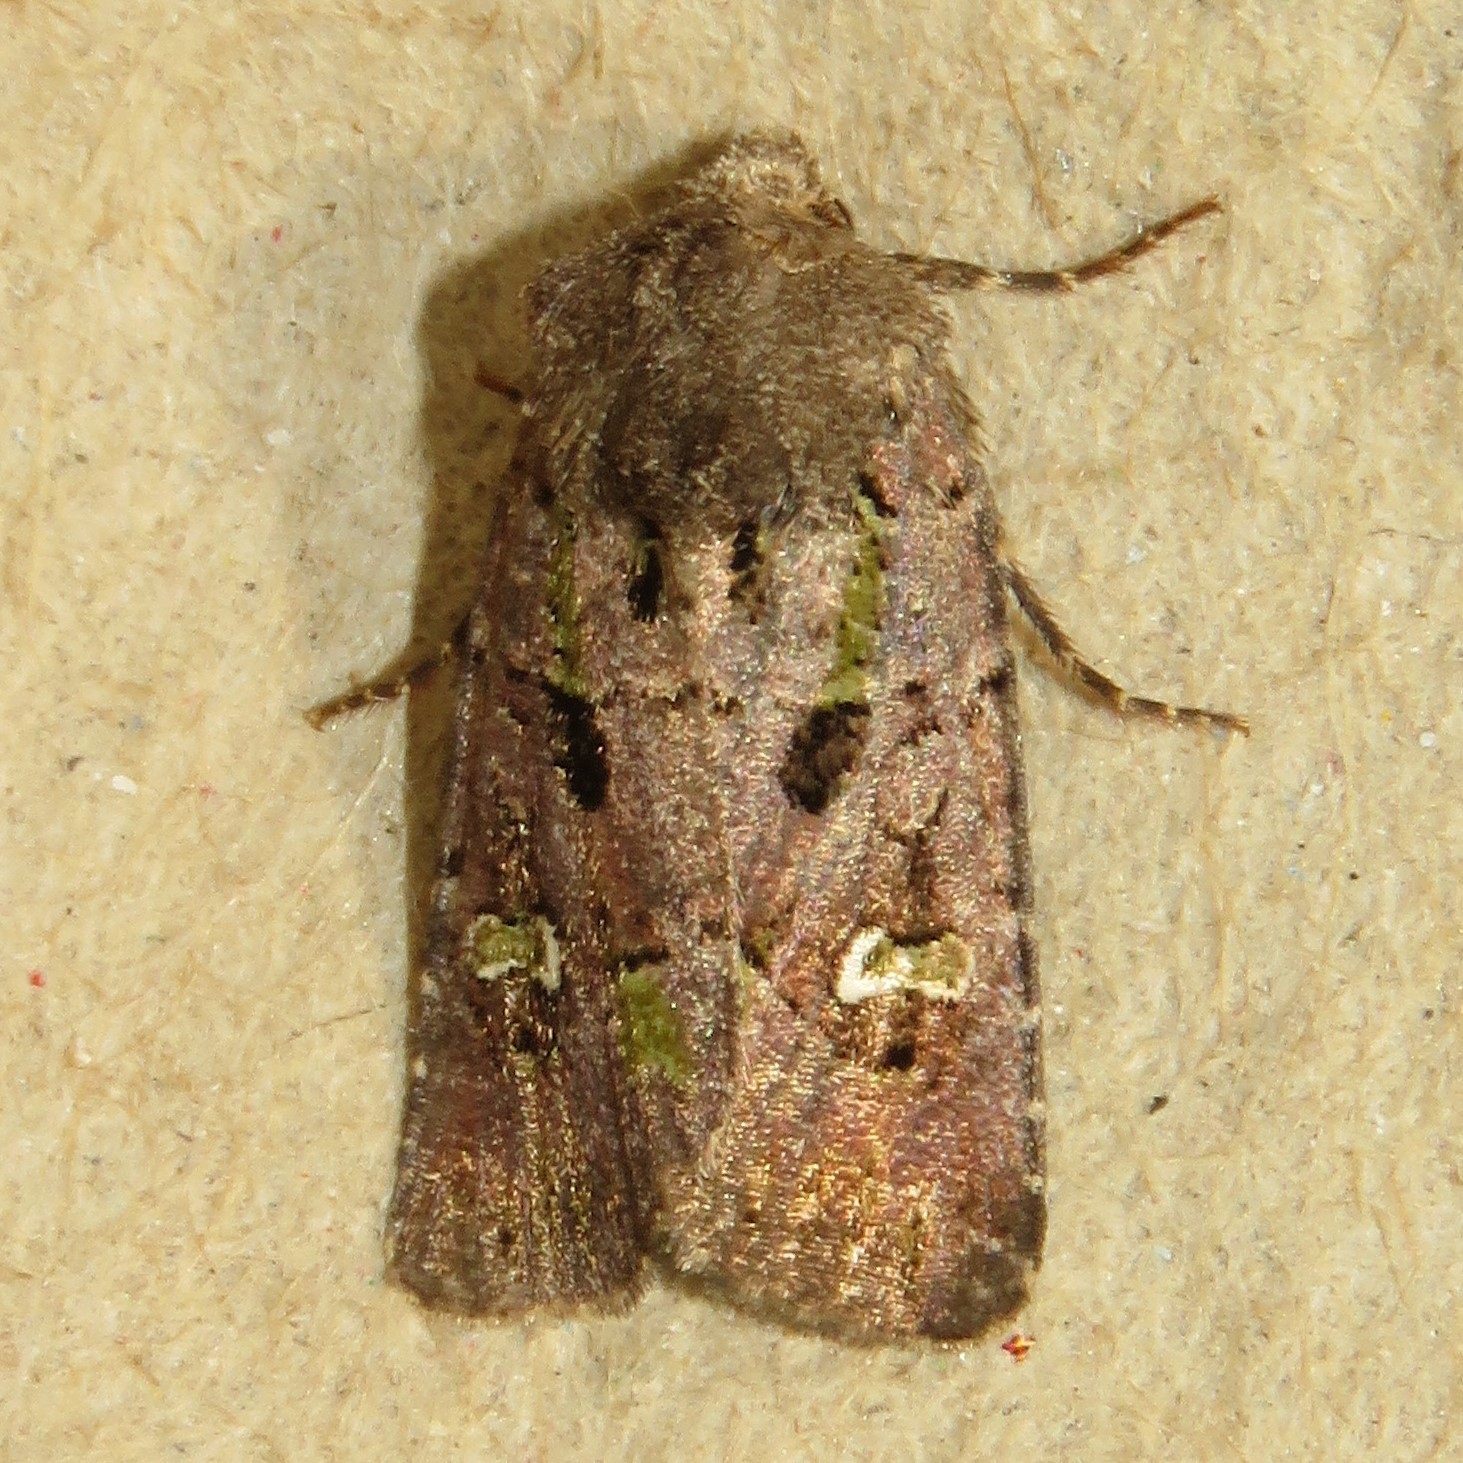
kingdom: Animalia
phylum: Arthropoda
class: Insecta
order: Lepidoptera
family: Noctuidae
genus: Lacinipolia
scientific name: Lacinipolia renigera
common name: Kidney-spotted minor
